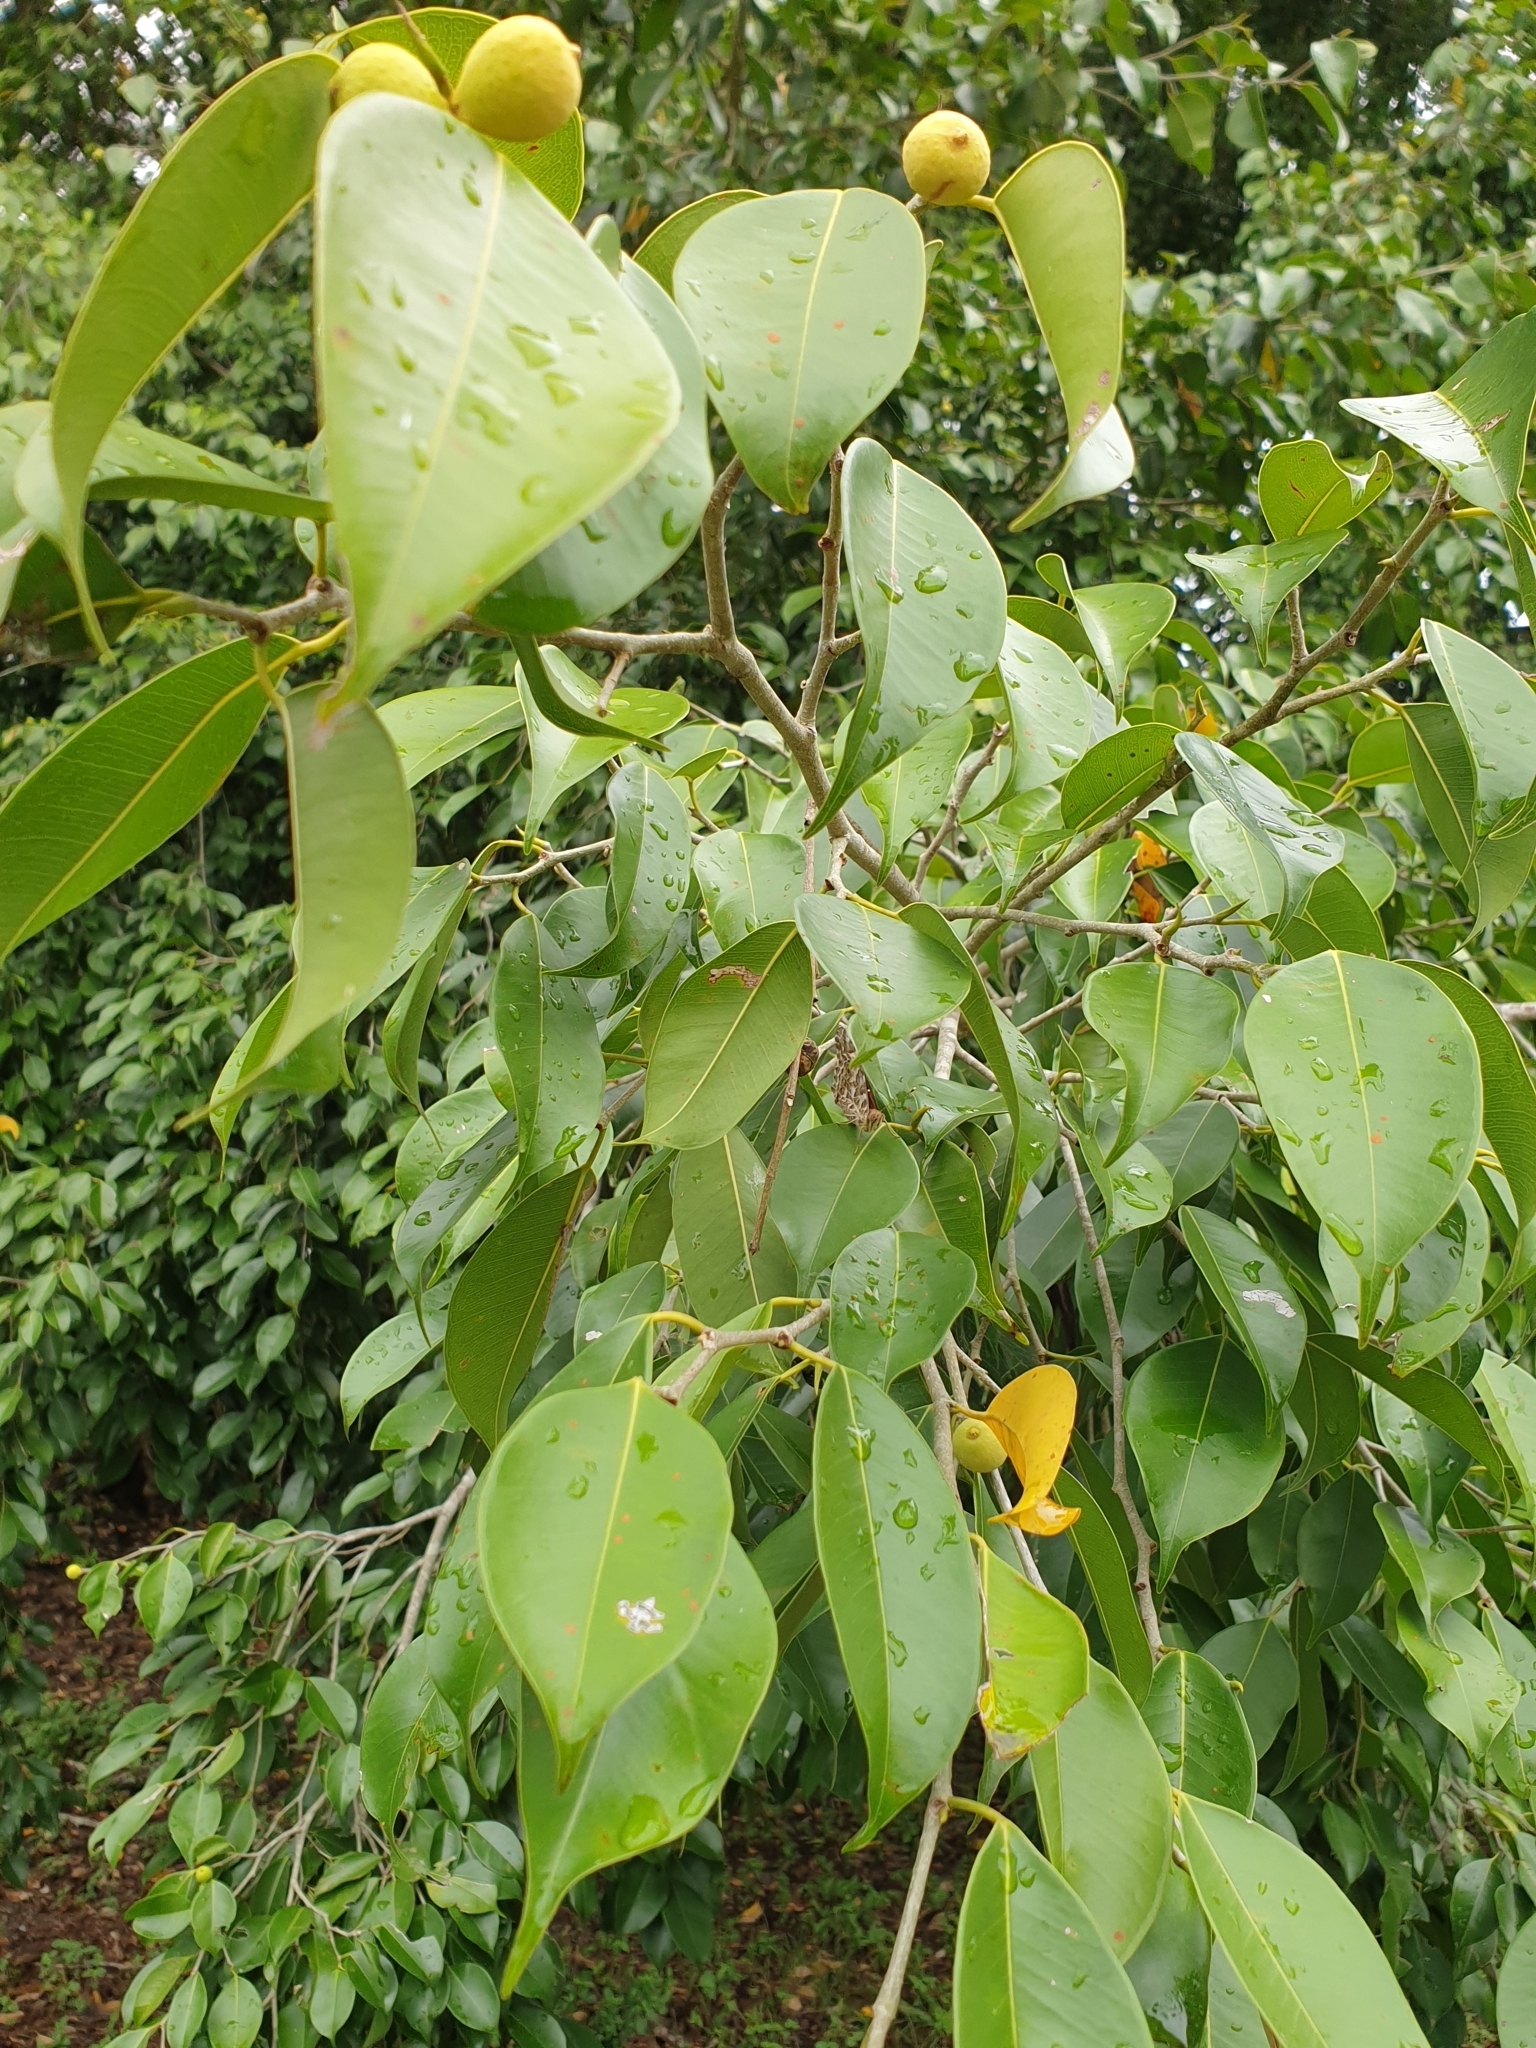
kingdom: Animalia
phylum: Arthropoda
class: Insecta
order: Lepidoptera
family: Nymphalidae
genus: Vanessa
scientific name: Vanessa kershawi
